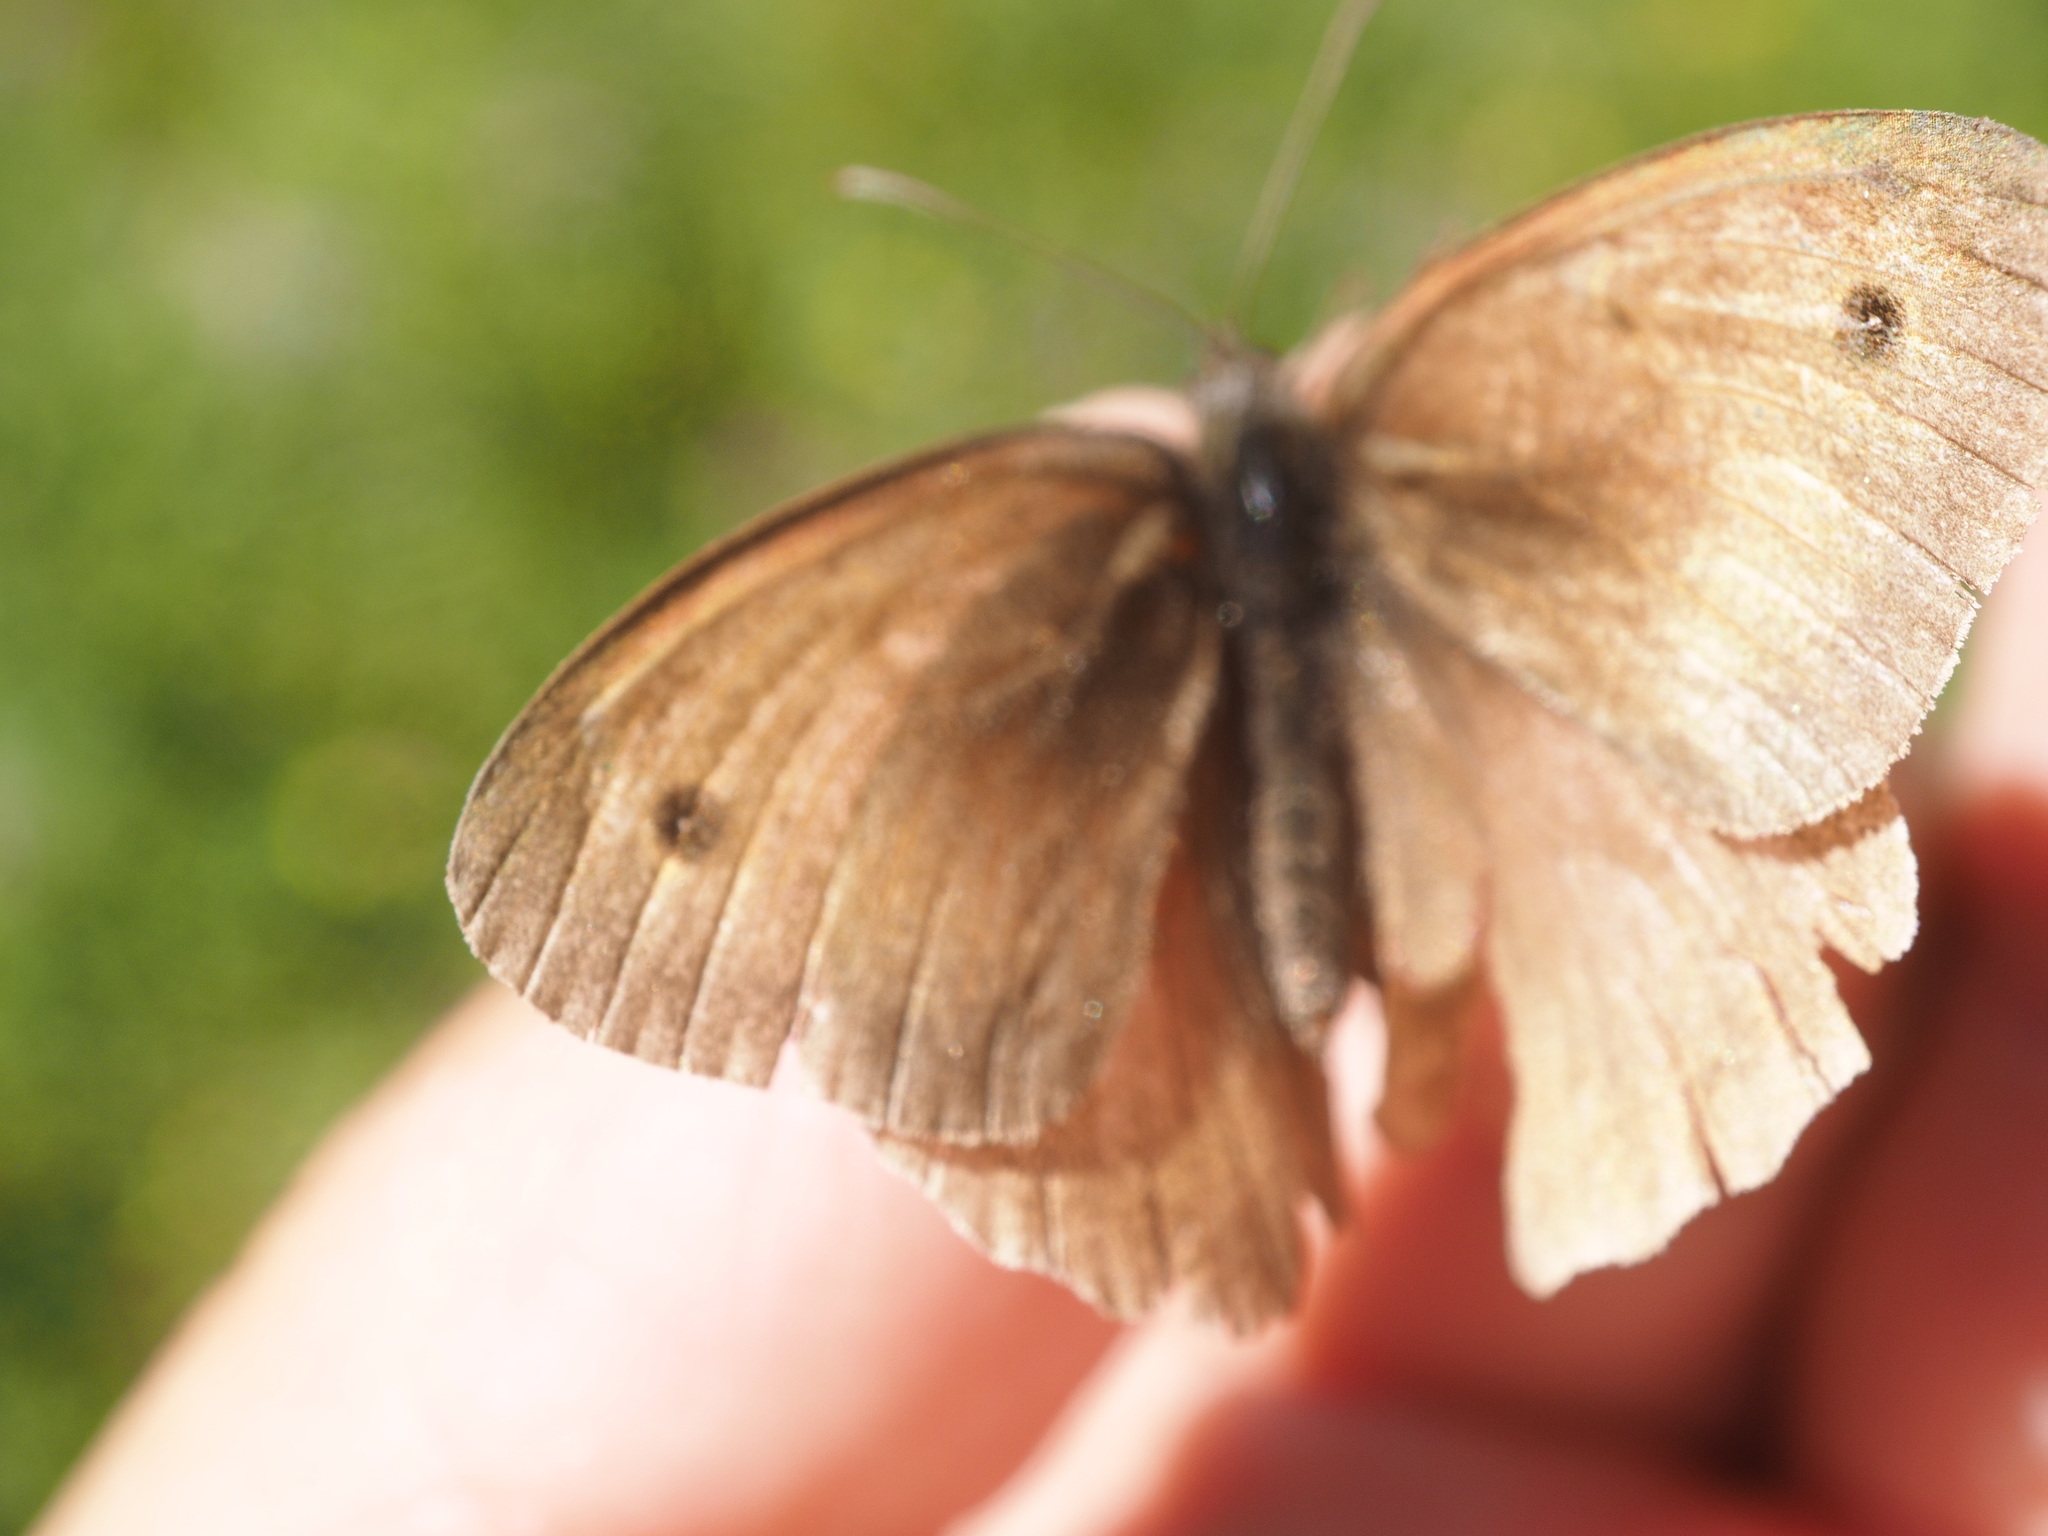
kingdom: Animalia
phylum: Arthropoda
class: Insecta
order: Lepidoptera
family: Nymphalidae
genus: Maniola
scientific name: Maniola jurtina
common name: Meadow brown
